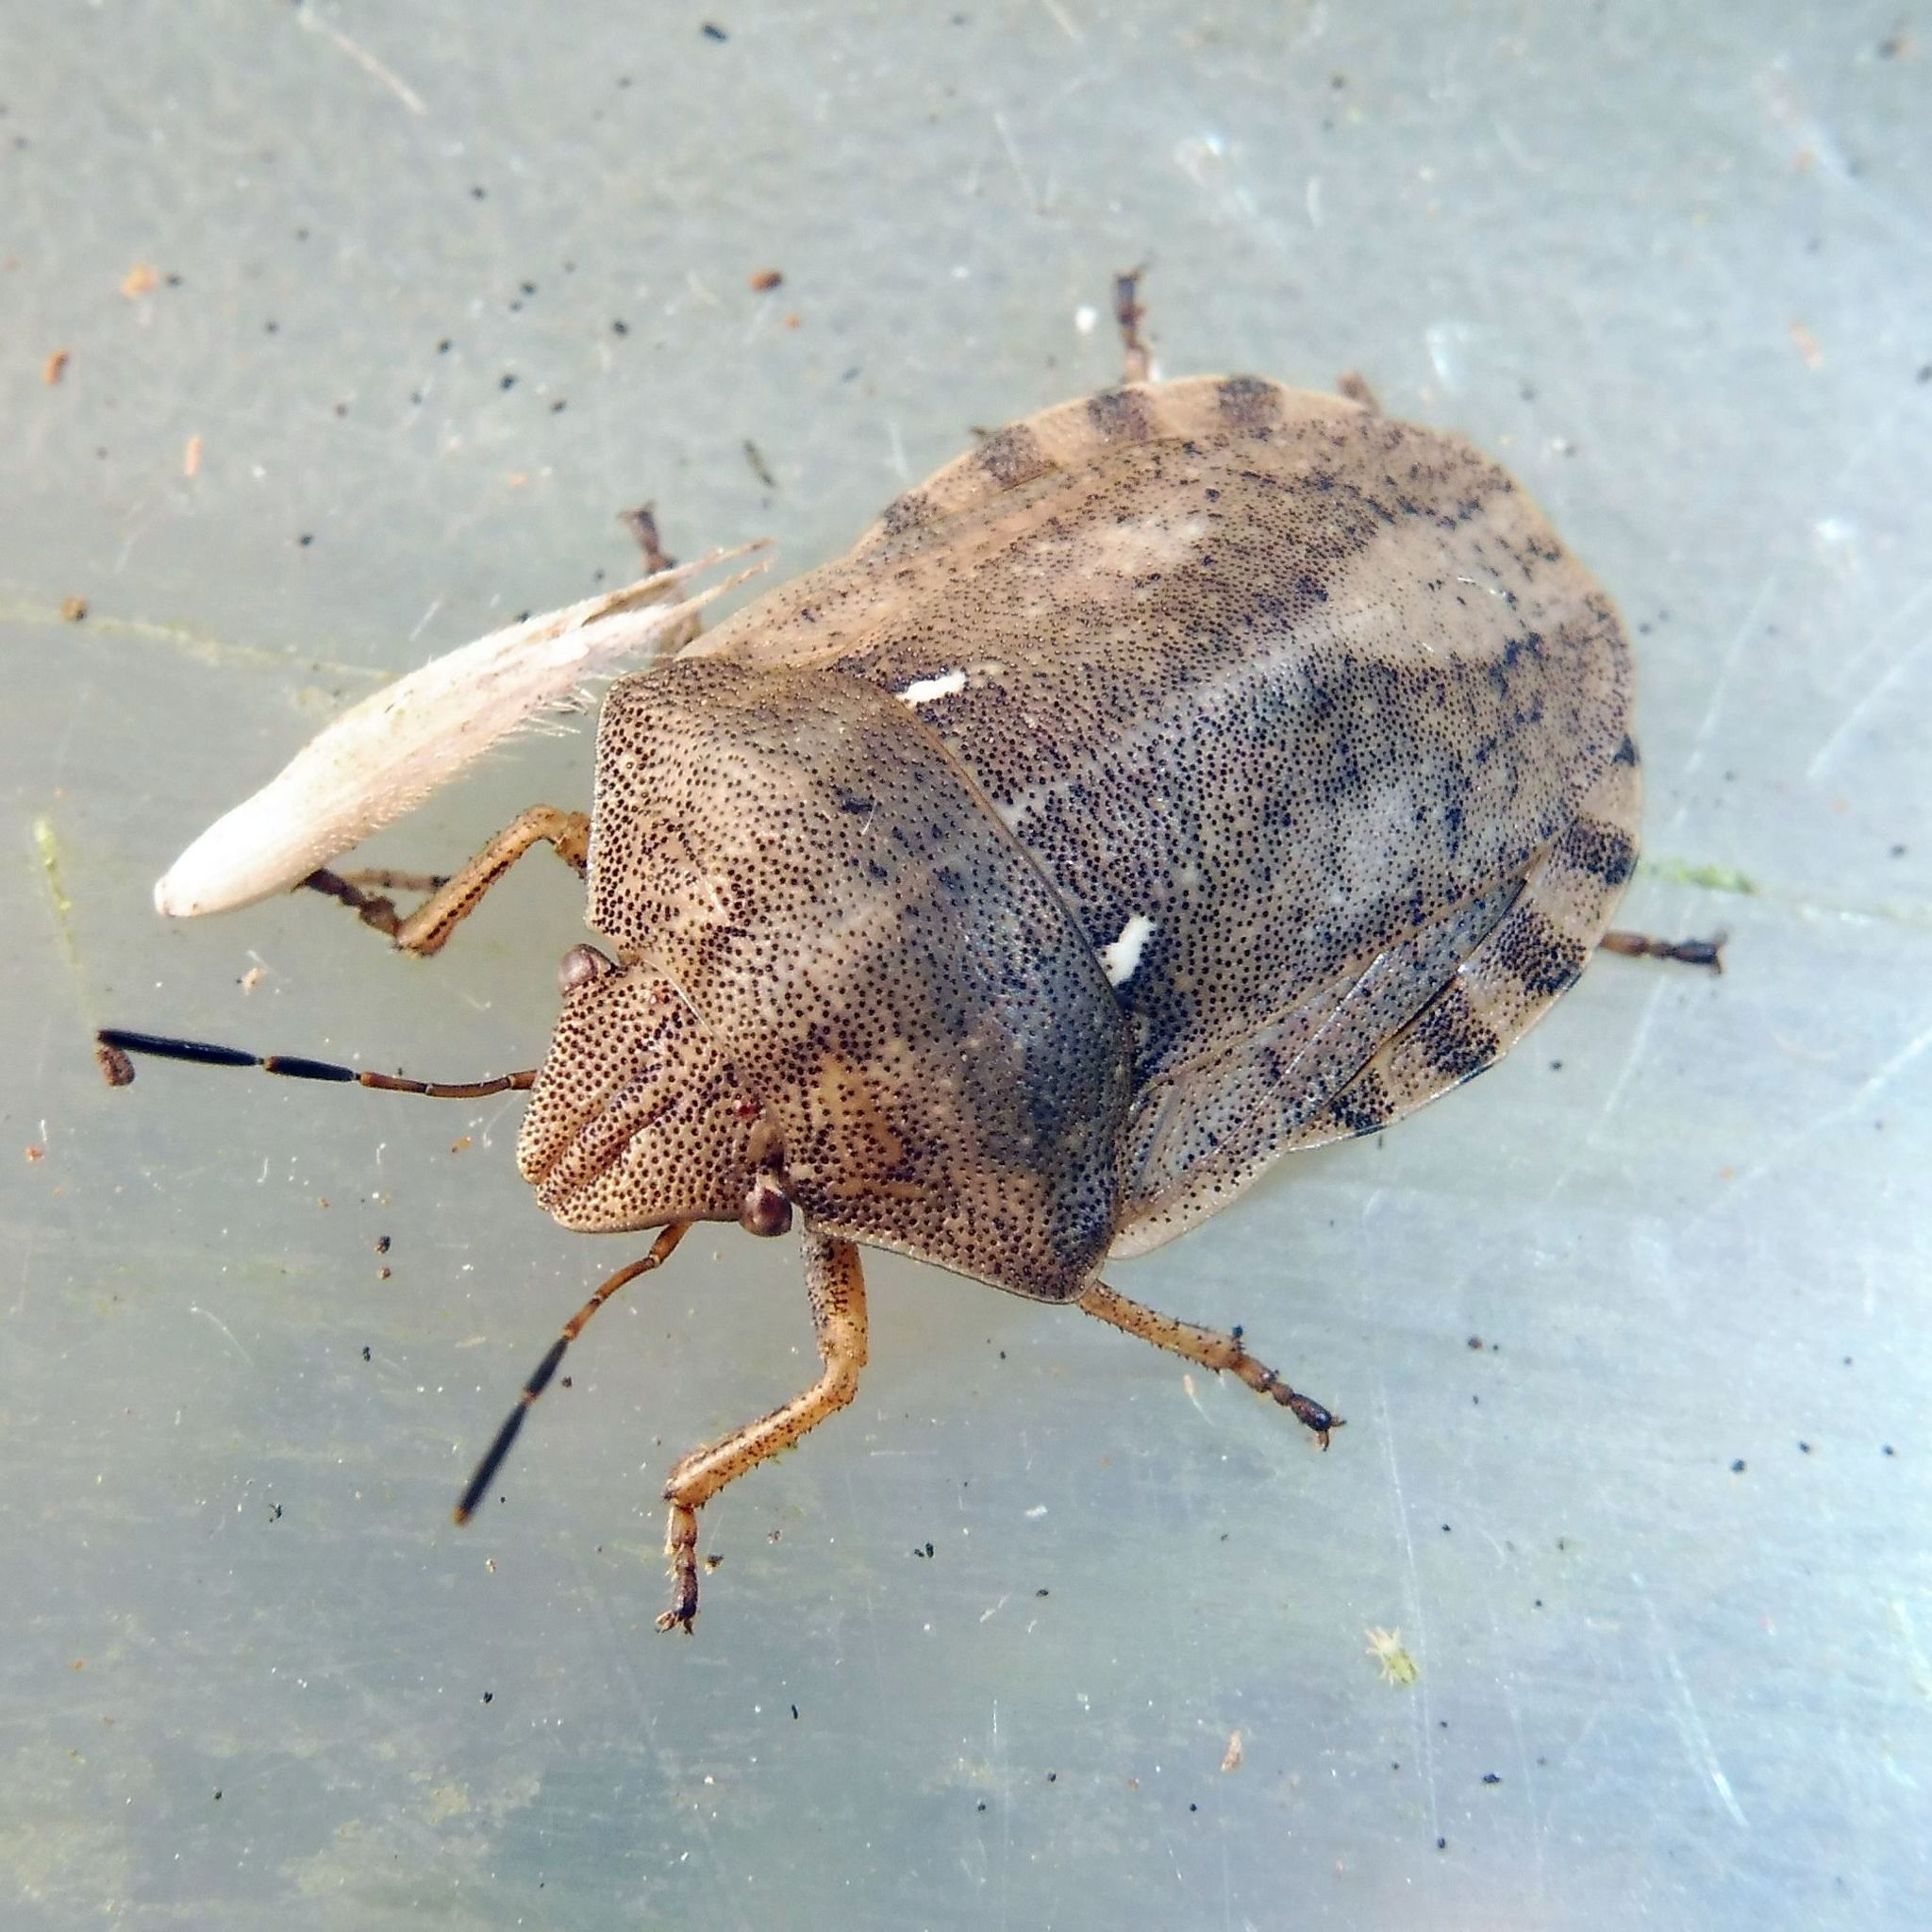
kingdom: Animalia
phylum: Arthropoda
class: Insecta
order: Hemiptera
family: Scutelleridae
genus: Eurygaster
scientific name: Eurygaster testudinaria
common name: Tortoise bug
